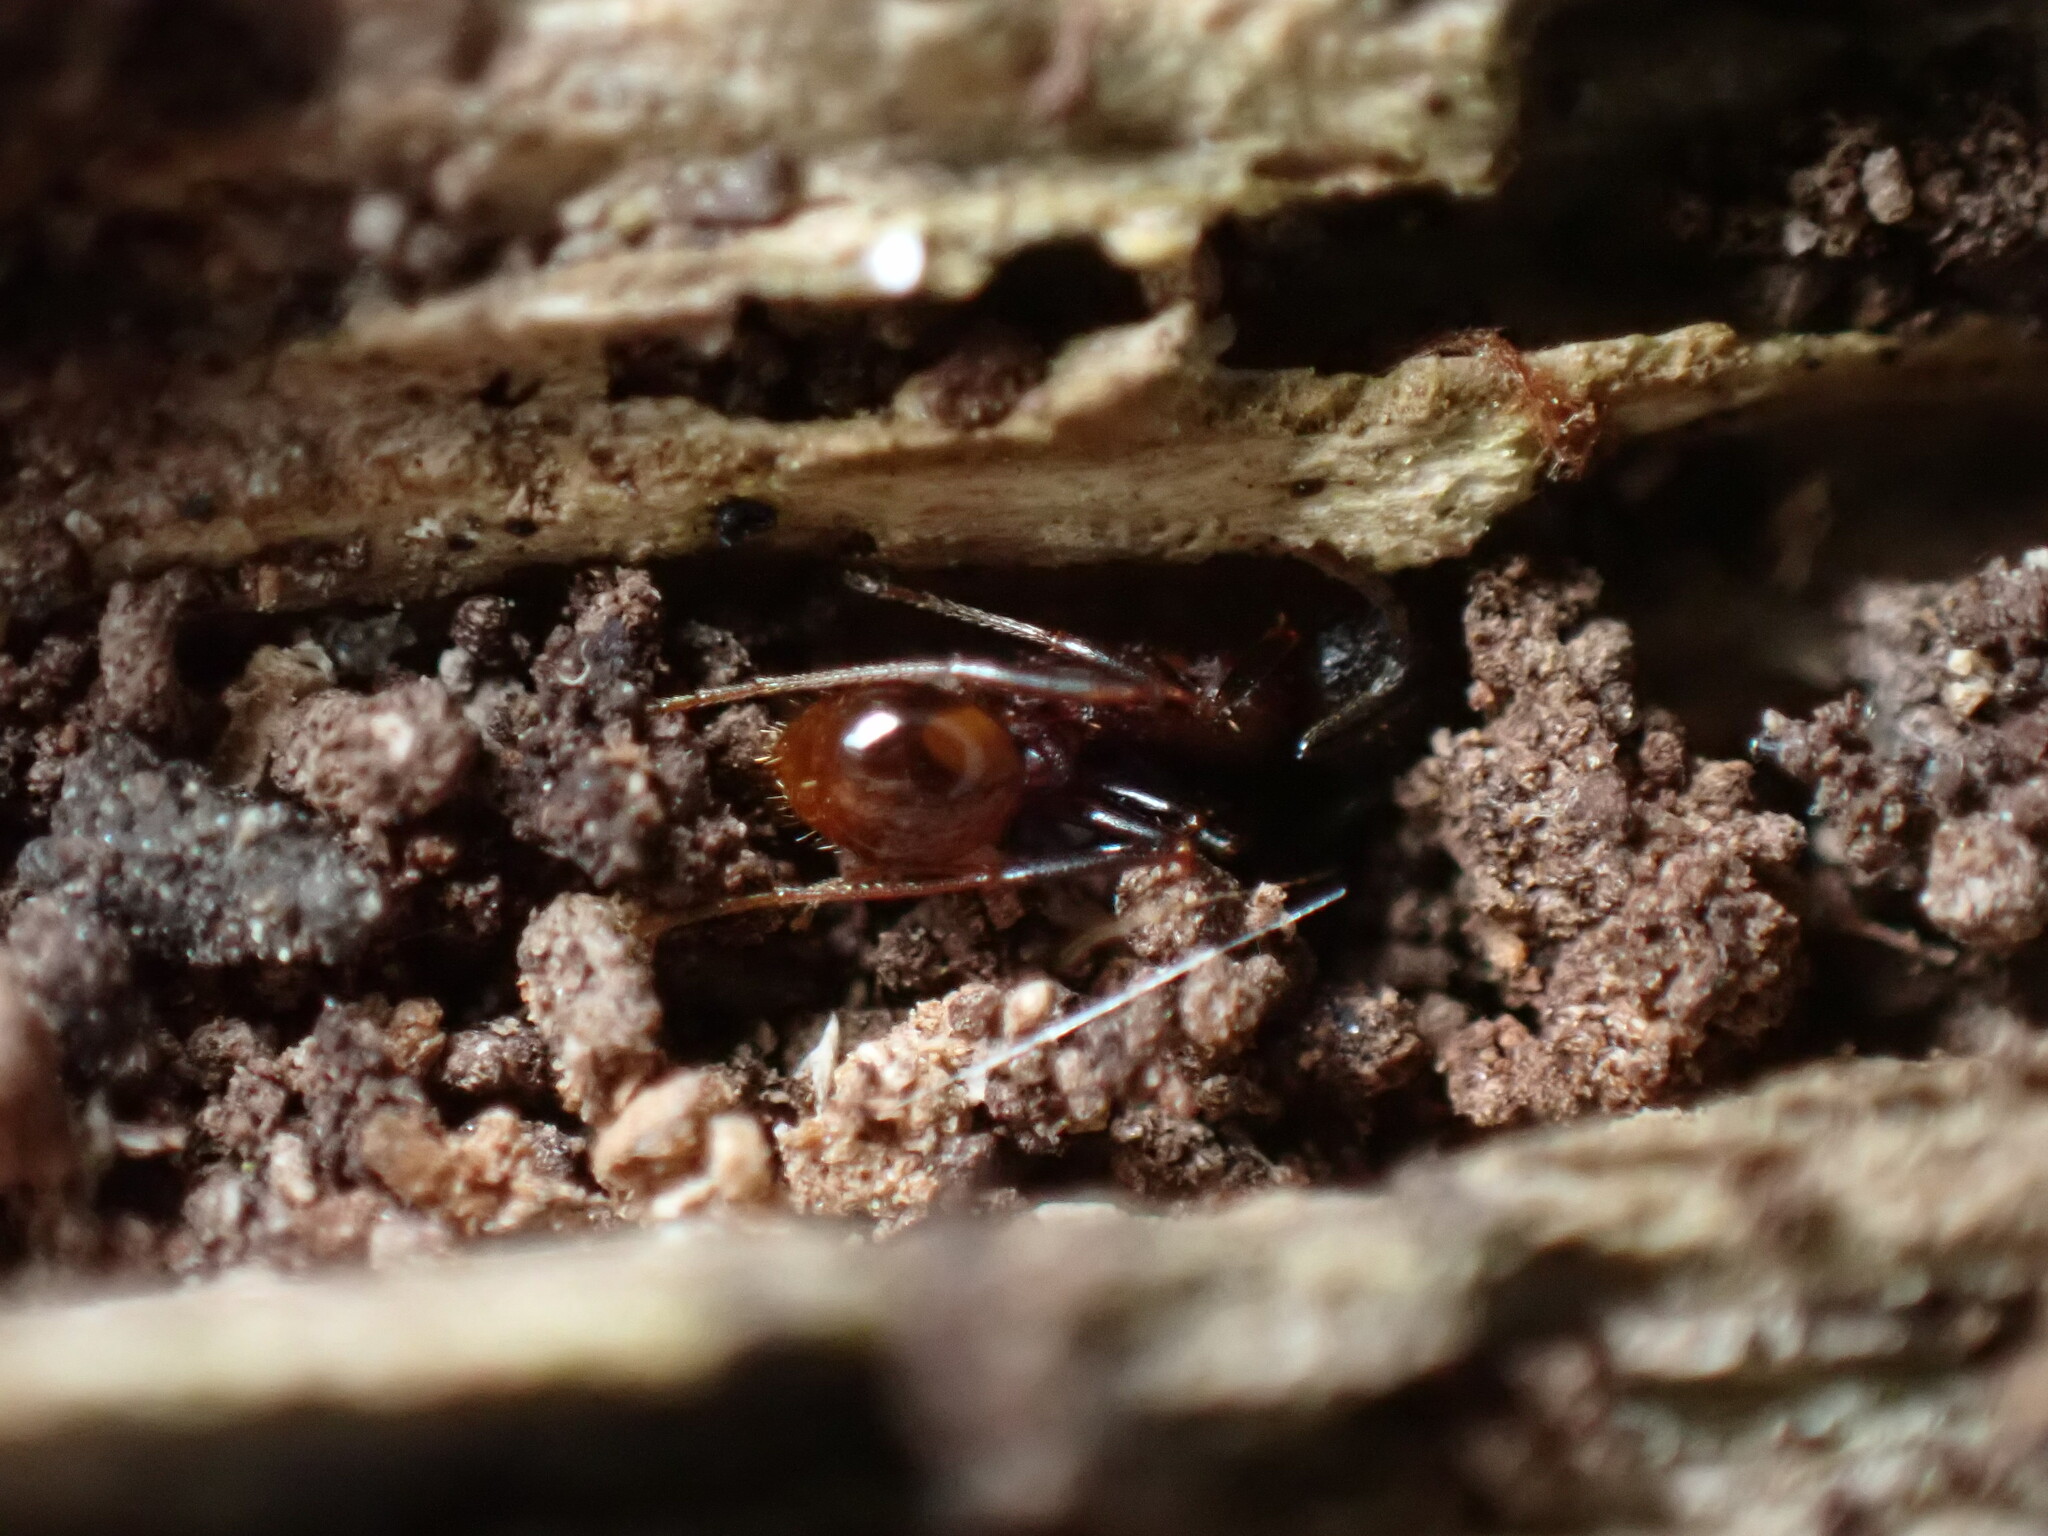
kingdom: Animalia
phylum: Arthropoda
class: Insecta
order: Hymenoptera
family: Formicidae
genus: Aphaenogaster
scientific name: Aphaenogaster fulva
